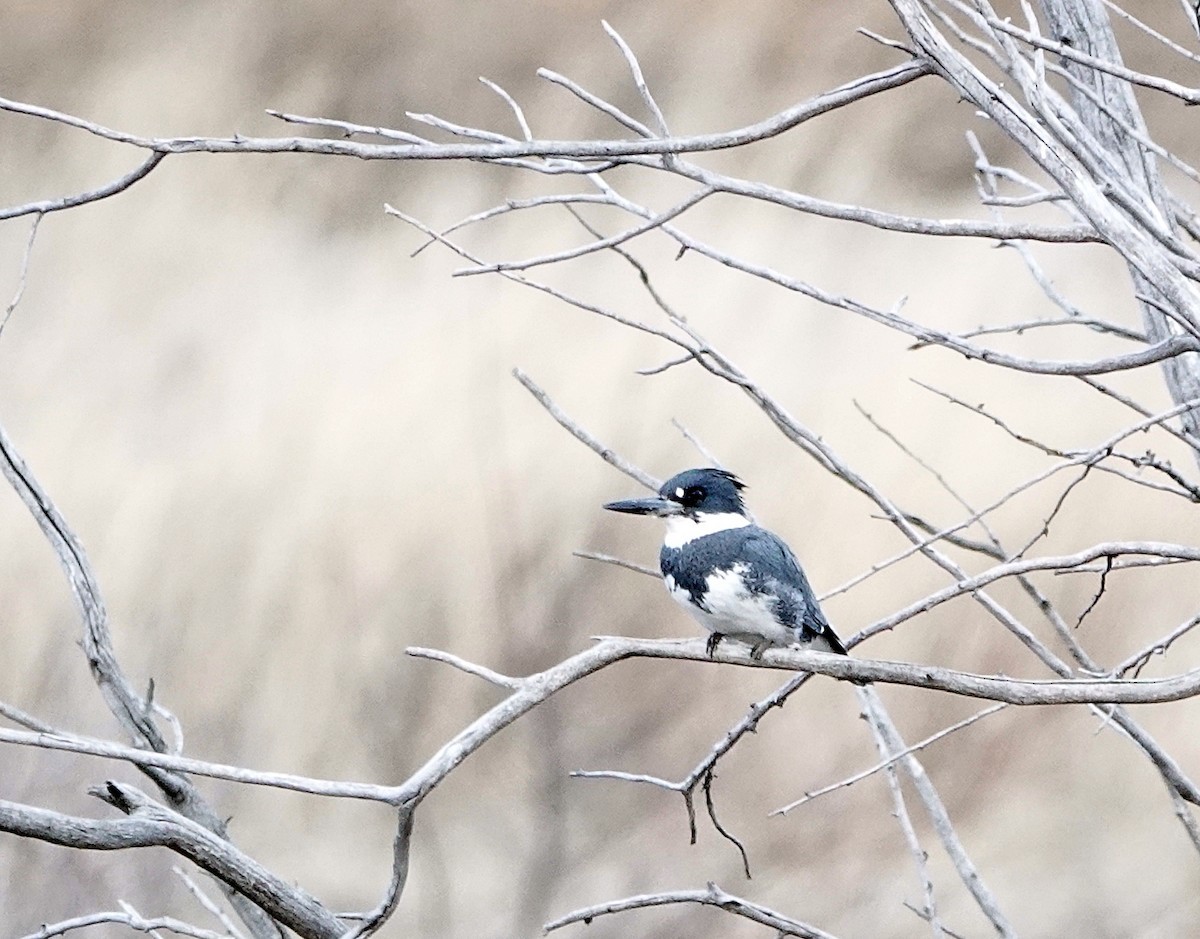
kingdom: Animalia
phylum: Chordata
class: Aves
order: Coraciiformes
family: Alcedinidae
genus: Megaceryle
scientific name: Megaceryle alcyon
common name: Belted kingfisher
